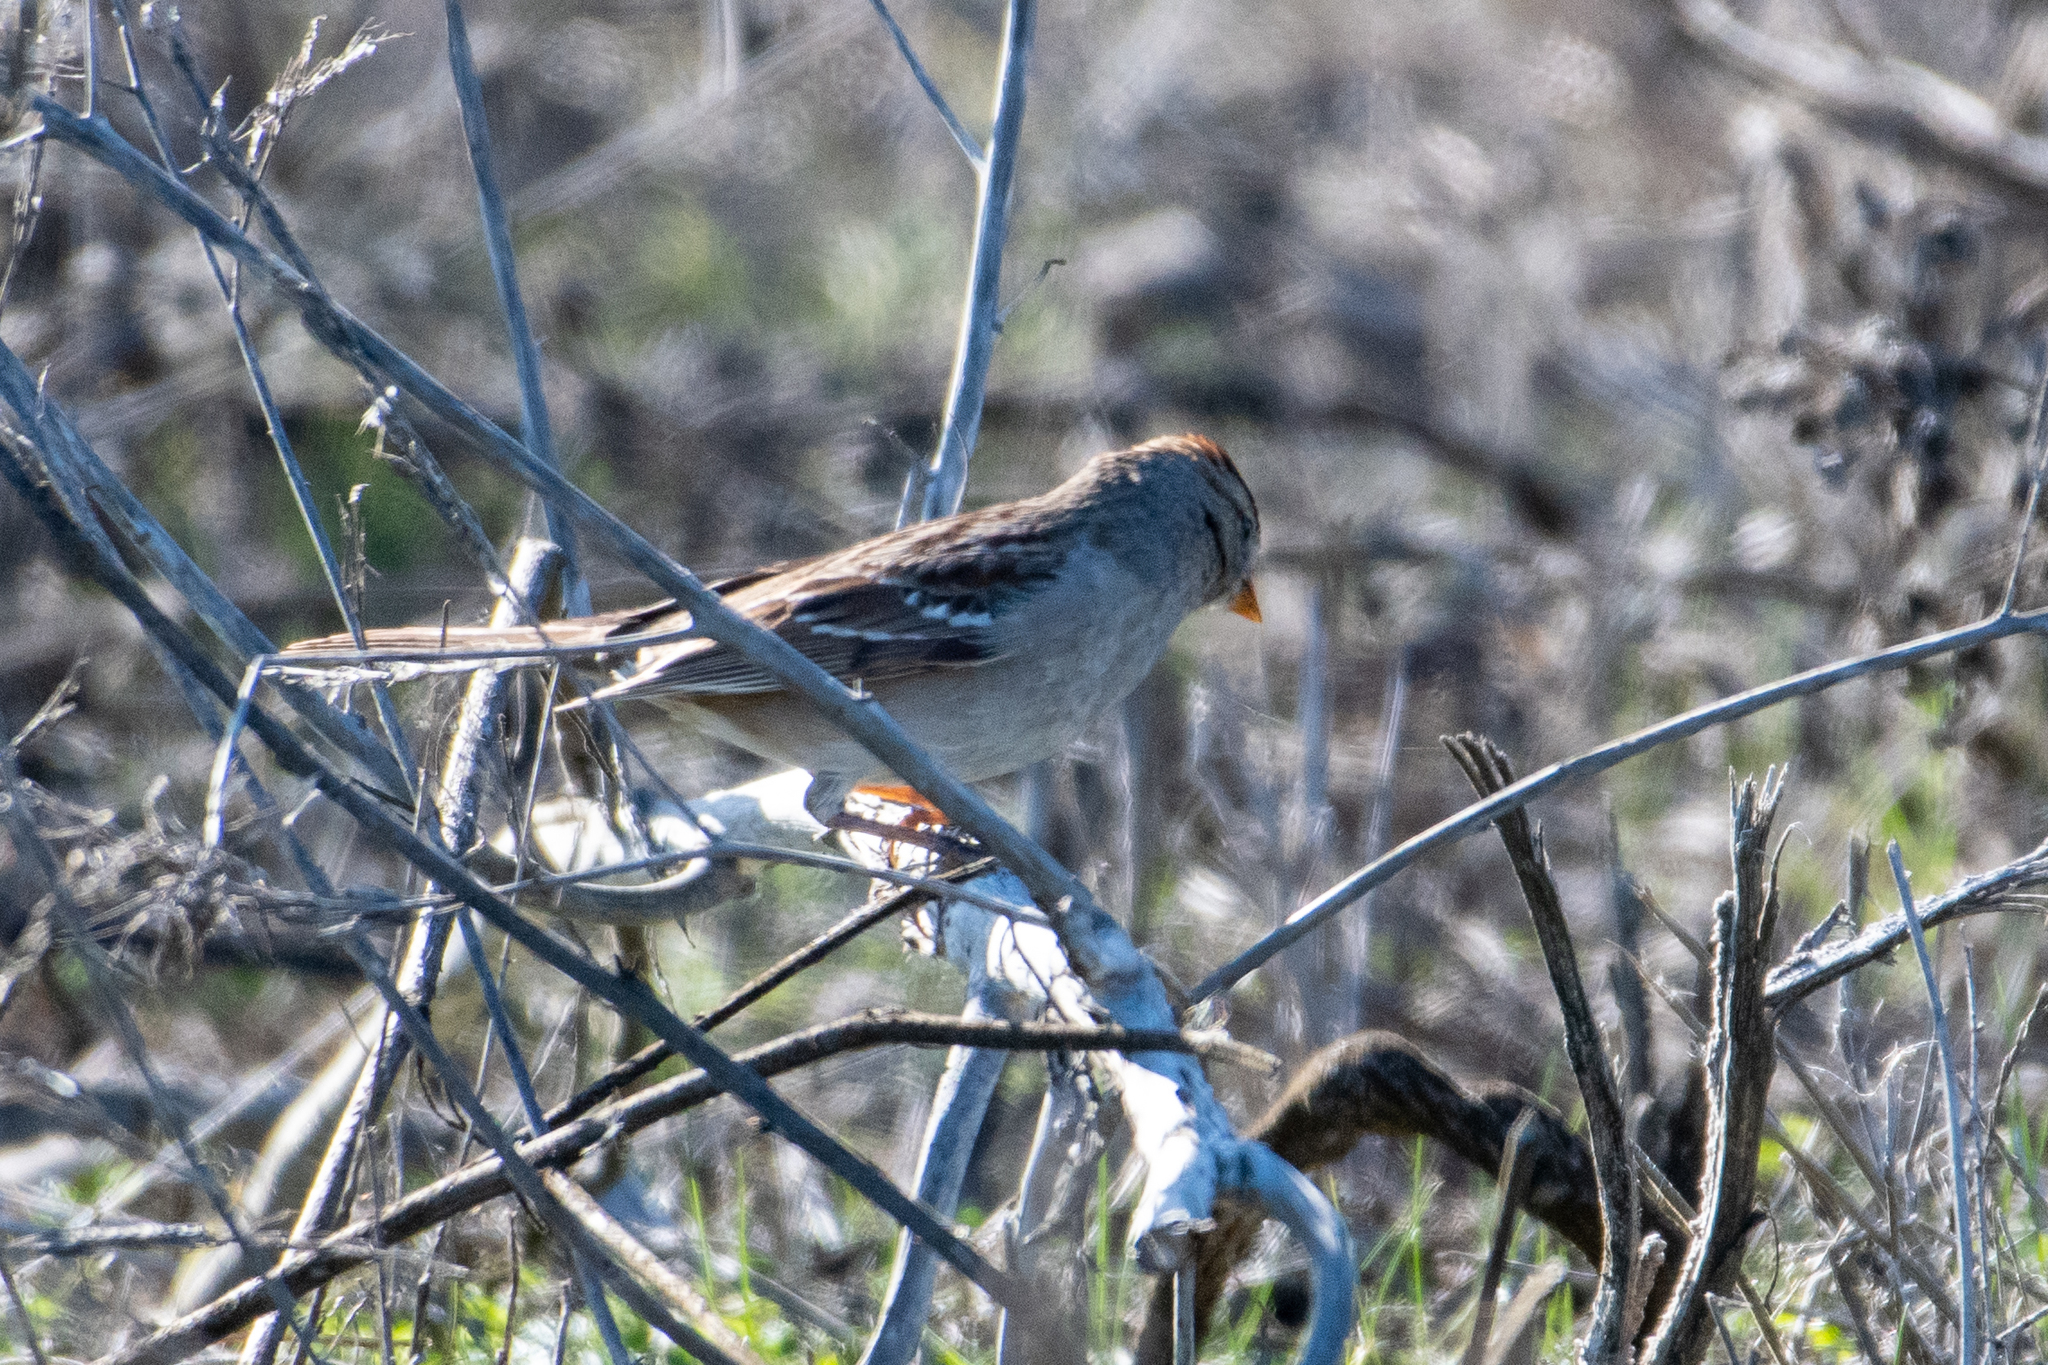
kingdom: Animalia
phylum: Chordata
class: Aves
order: Passeriformes
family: Passerellidae
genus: Zonotrichia
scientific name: Zonotrichia leucophrys
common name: White-crowned sparrow
